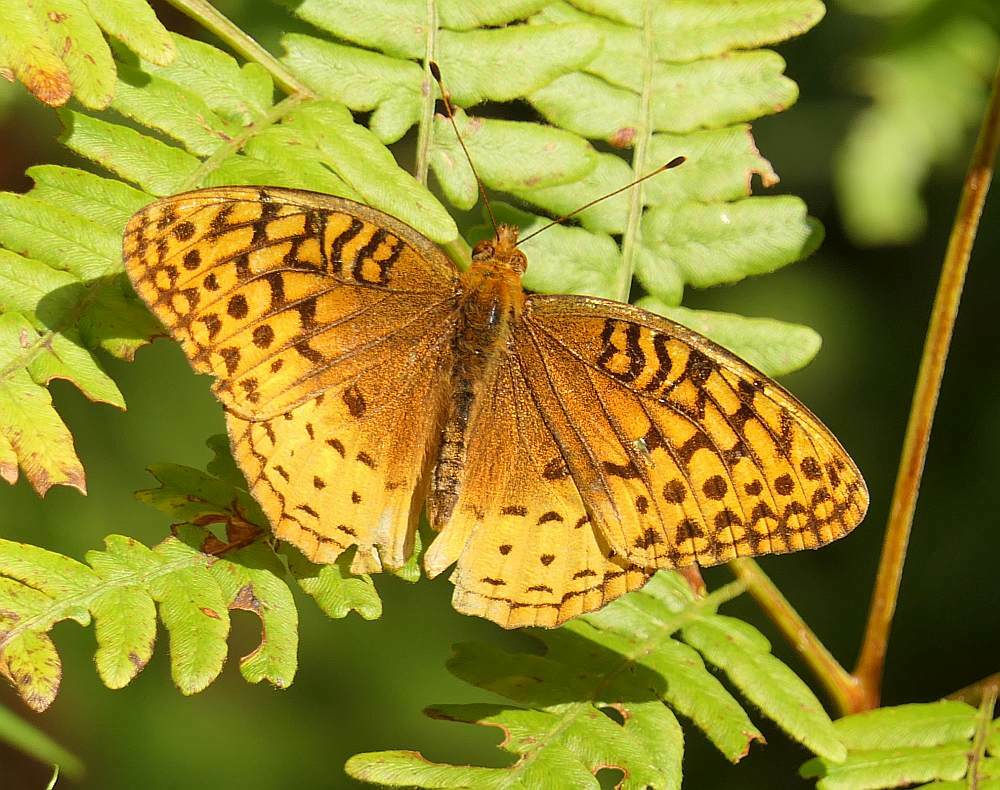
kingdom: Animalia
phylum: Arthropoda
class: Insecta
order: Lepidoptera
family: Nymphalidae
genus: Speyeria
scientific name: Speyeria cybele
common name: Great spangled fritillary
